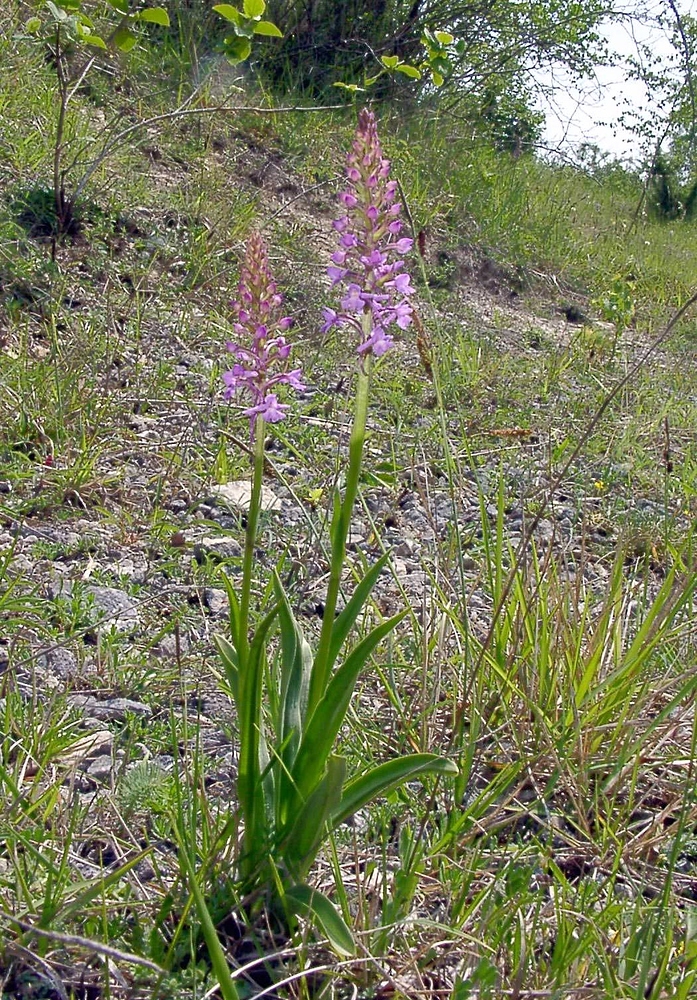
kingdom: Plantae
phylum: Tracheophyta
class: Liliopsida
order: Asparagales
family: Orchidaceae
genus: Gymnadenia
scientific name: Gymnadenia conopsea
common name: Fragrant orchid
